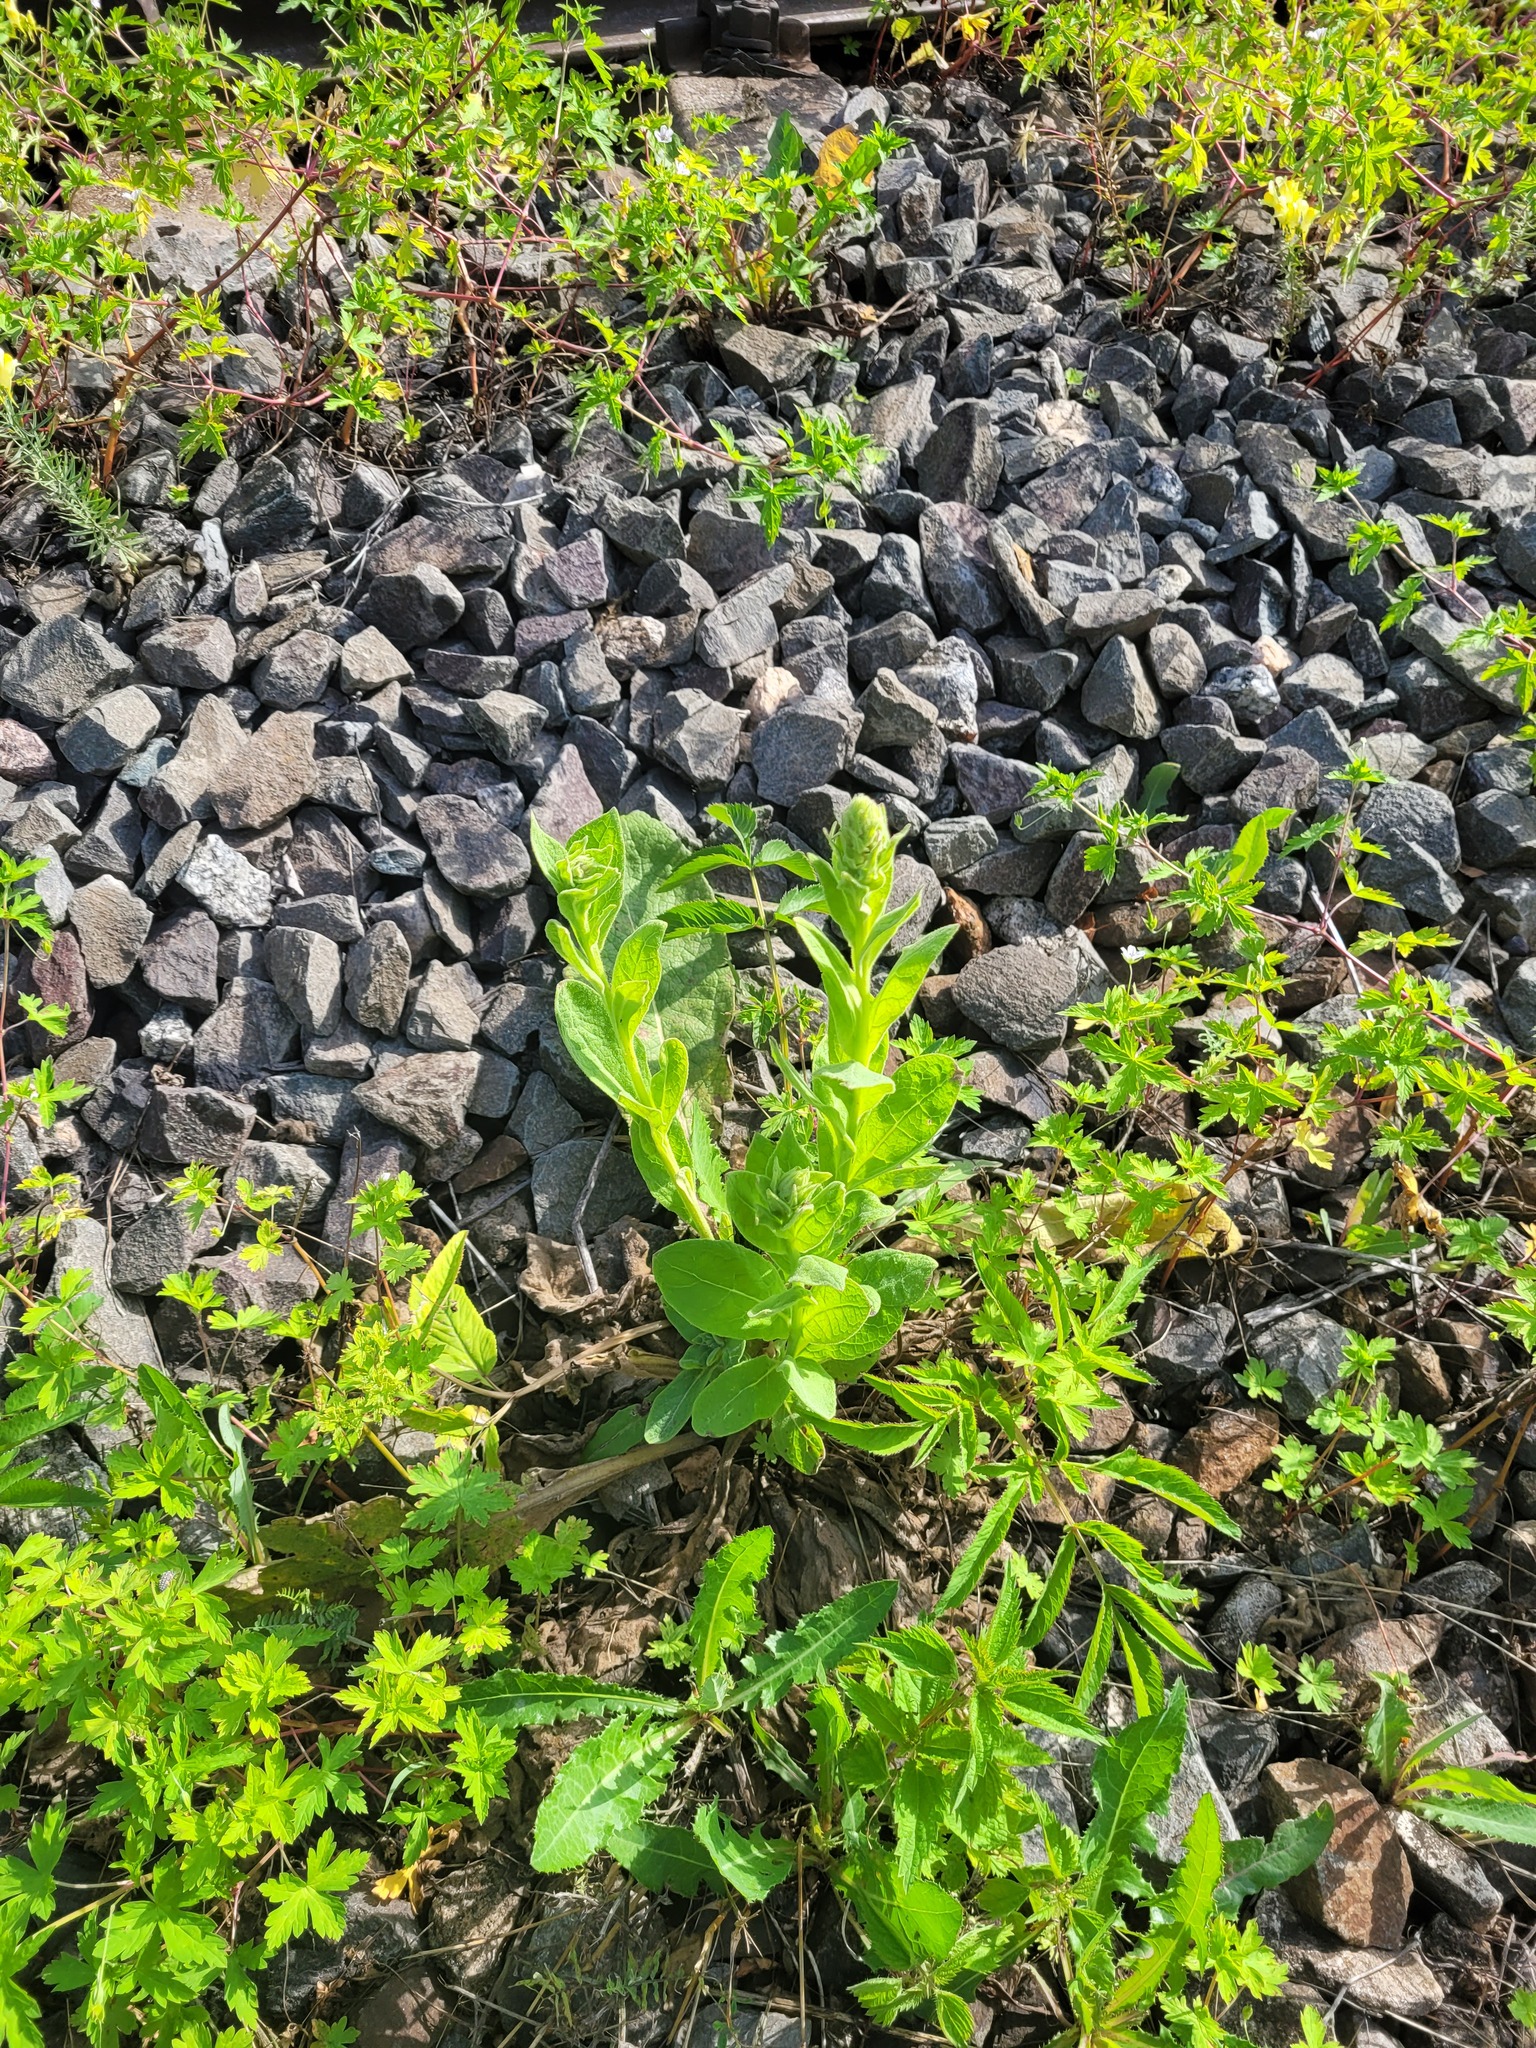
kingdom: Plantae
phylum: Tracheophyta
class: Magnoliopsida
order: Lamiales
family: Scrophulariaceae
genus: Verbascum
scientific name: Verbascum thapsus
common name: Common mullein
